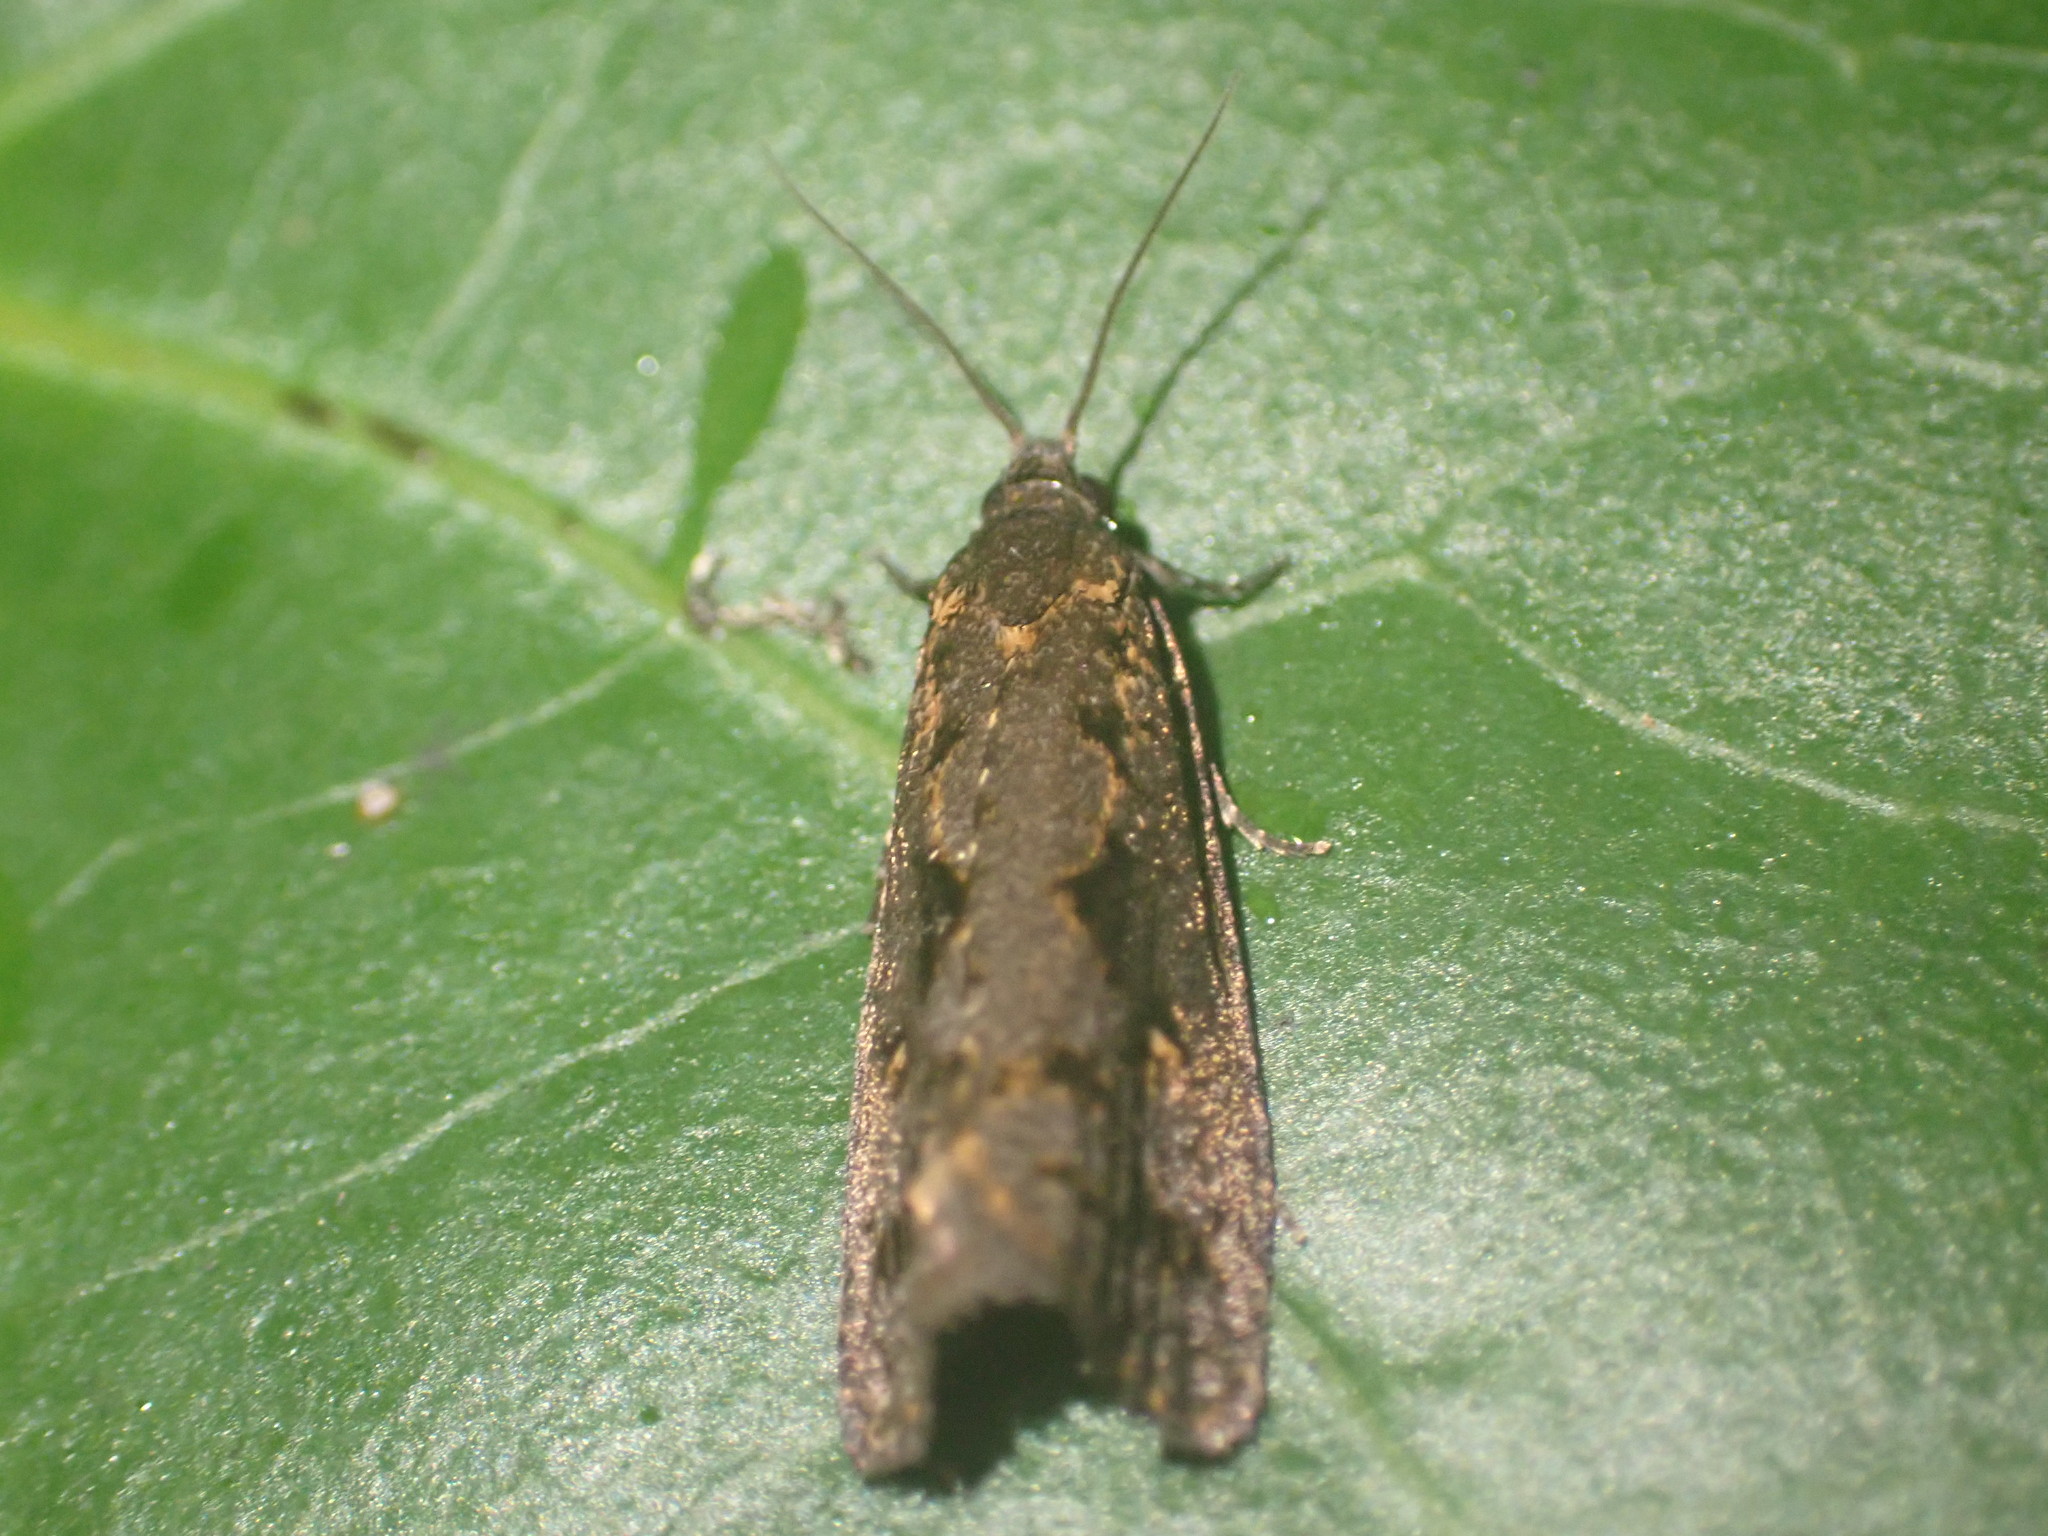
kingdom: Animalia
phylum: Arthropoda
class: Insecta
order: Lepidoptera
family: Tortricidae
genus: Cryptaspasma
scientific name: Cryptaspasma querula
